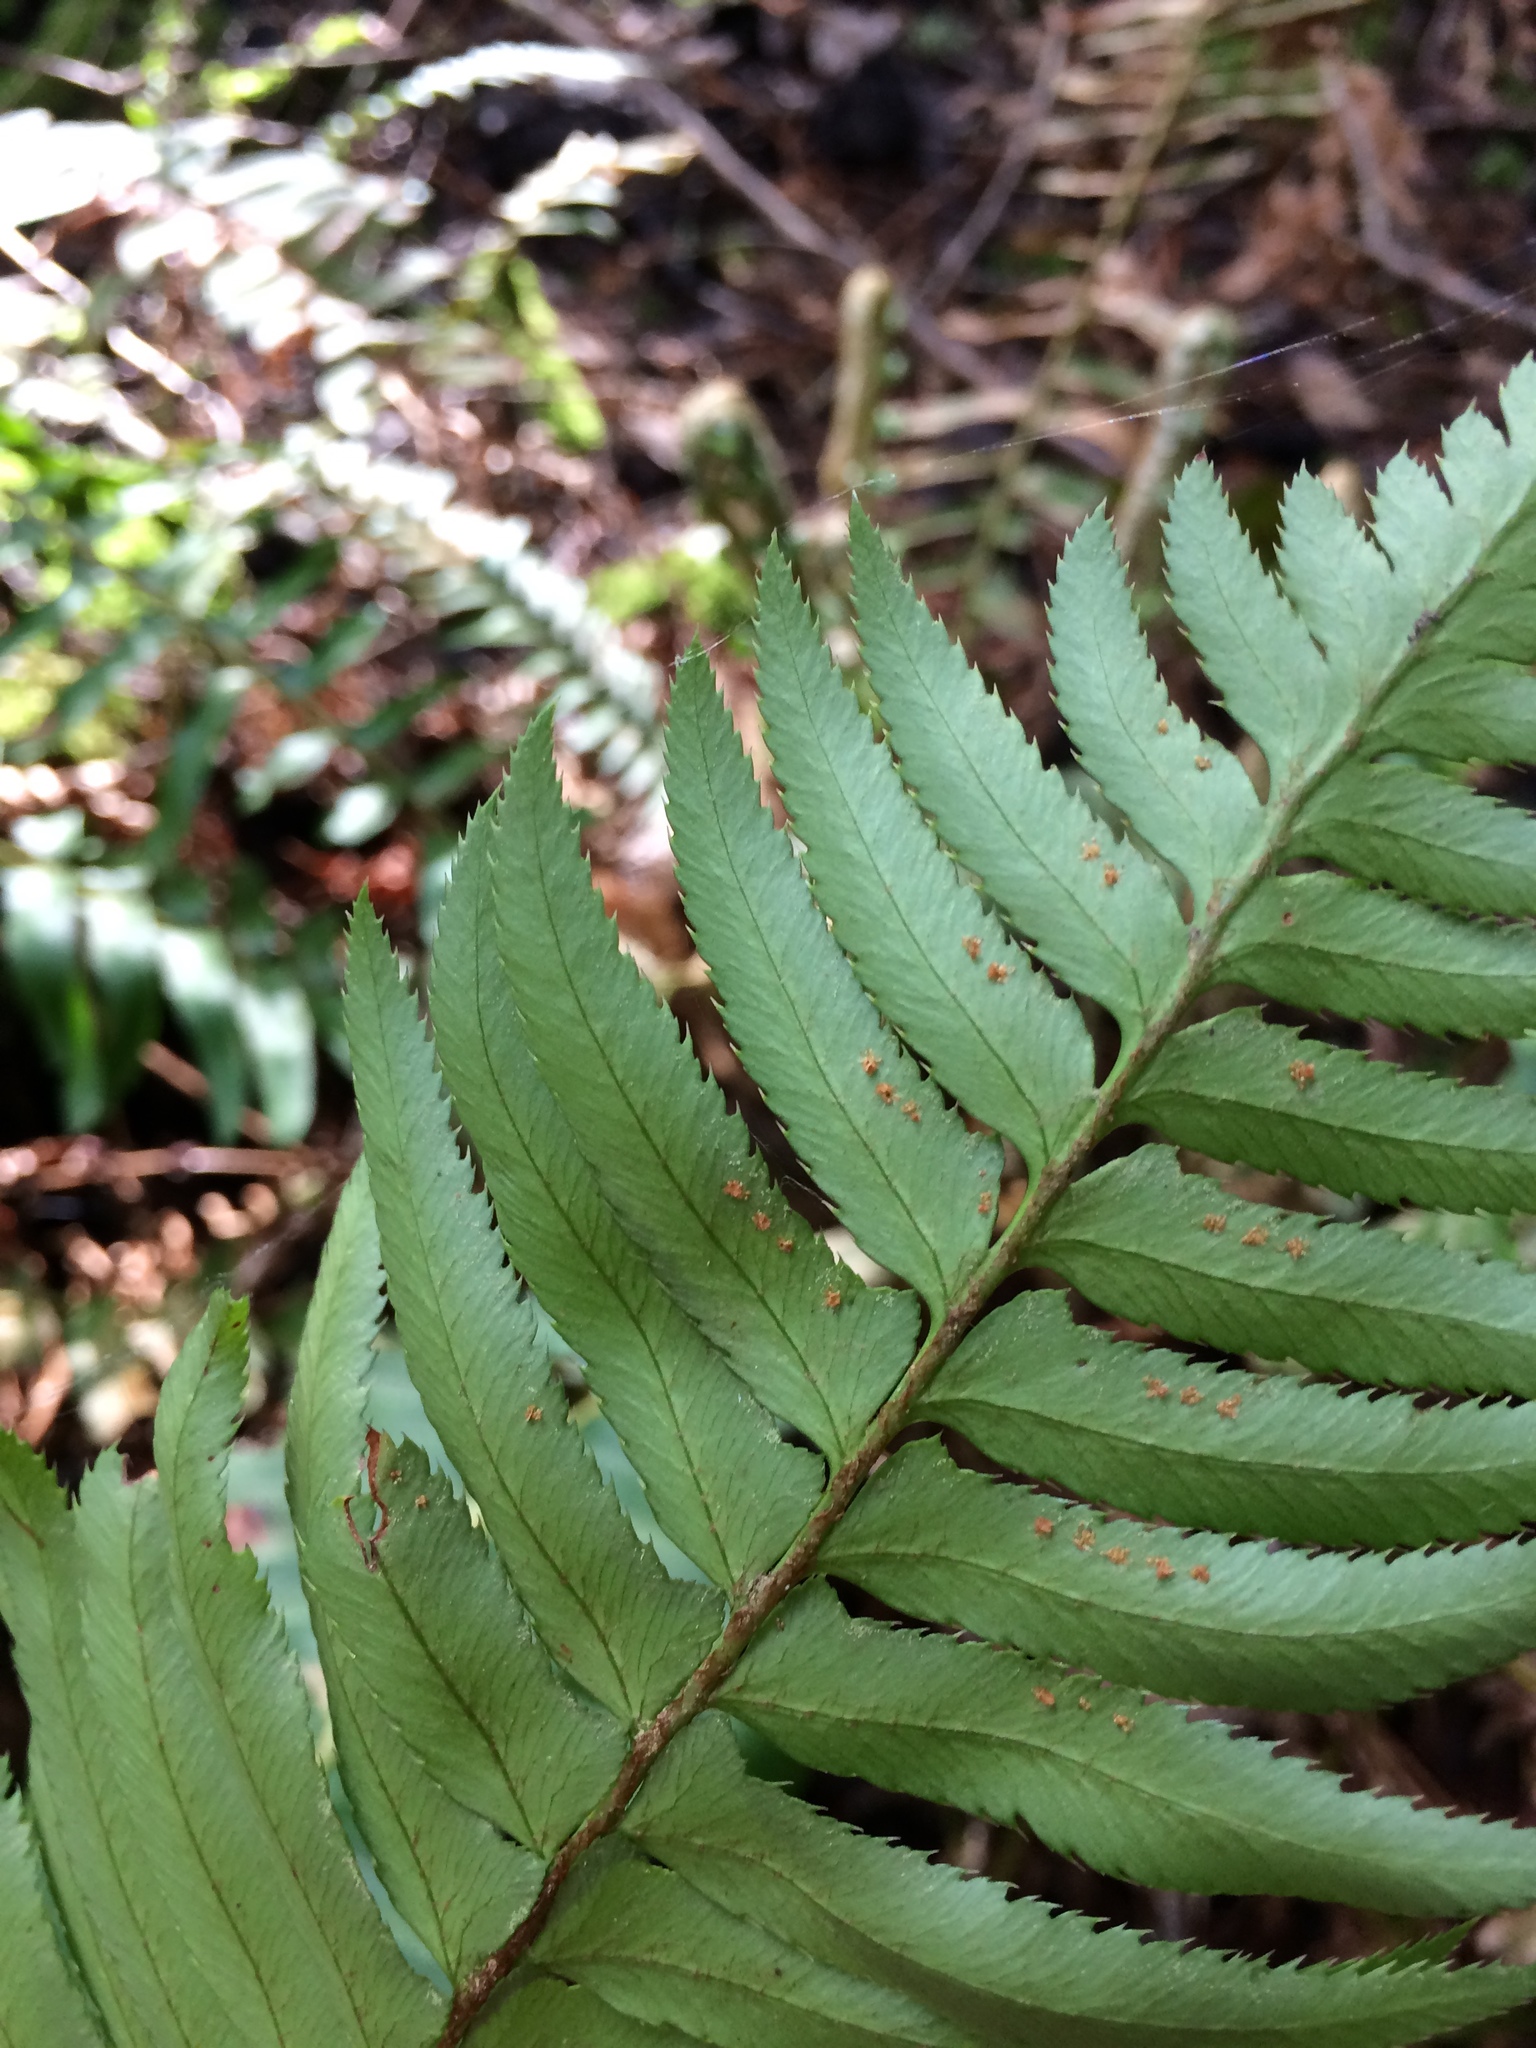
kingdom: Plantae
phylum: Tracheophyta
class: Polypodiopsida
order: Polypodiales
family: Dryopteridaceae
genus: Polystichum
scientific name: Polystichum munitum
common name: Western sword-fern
